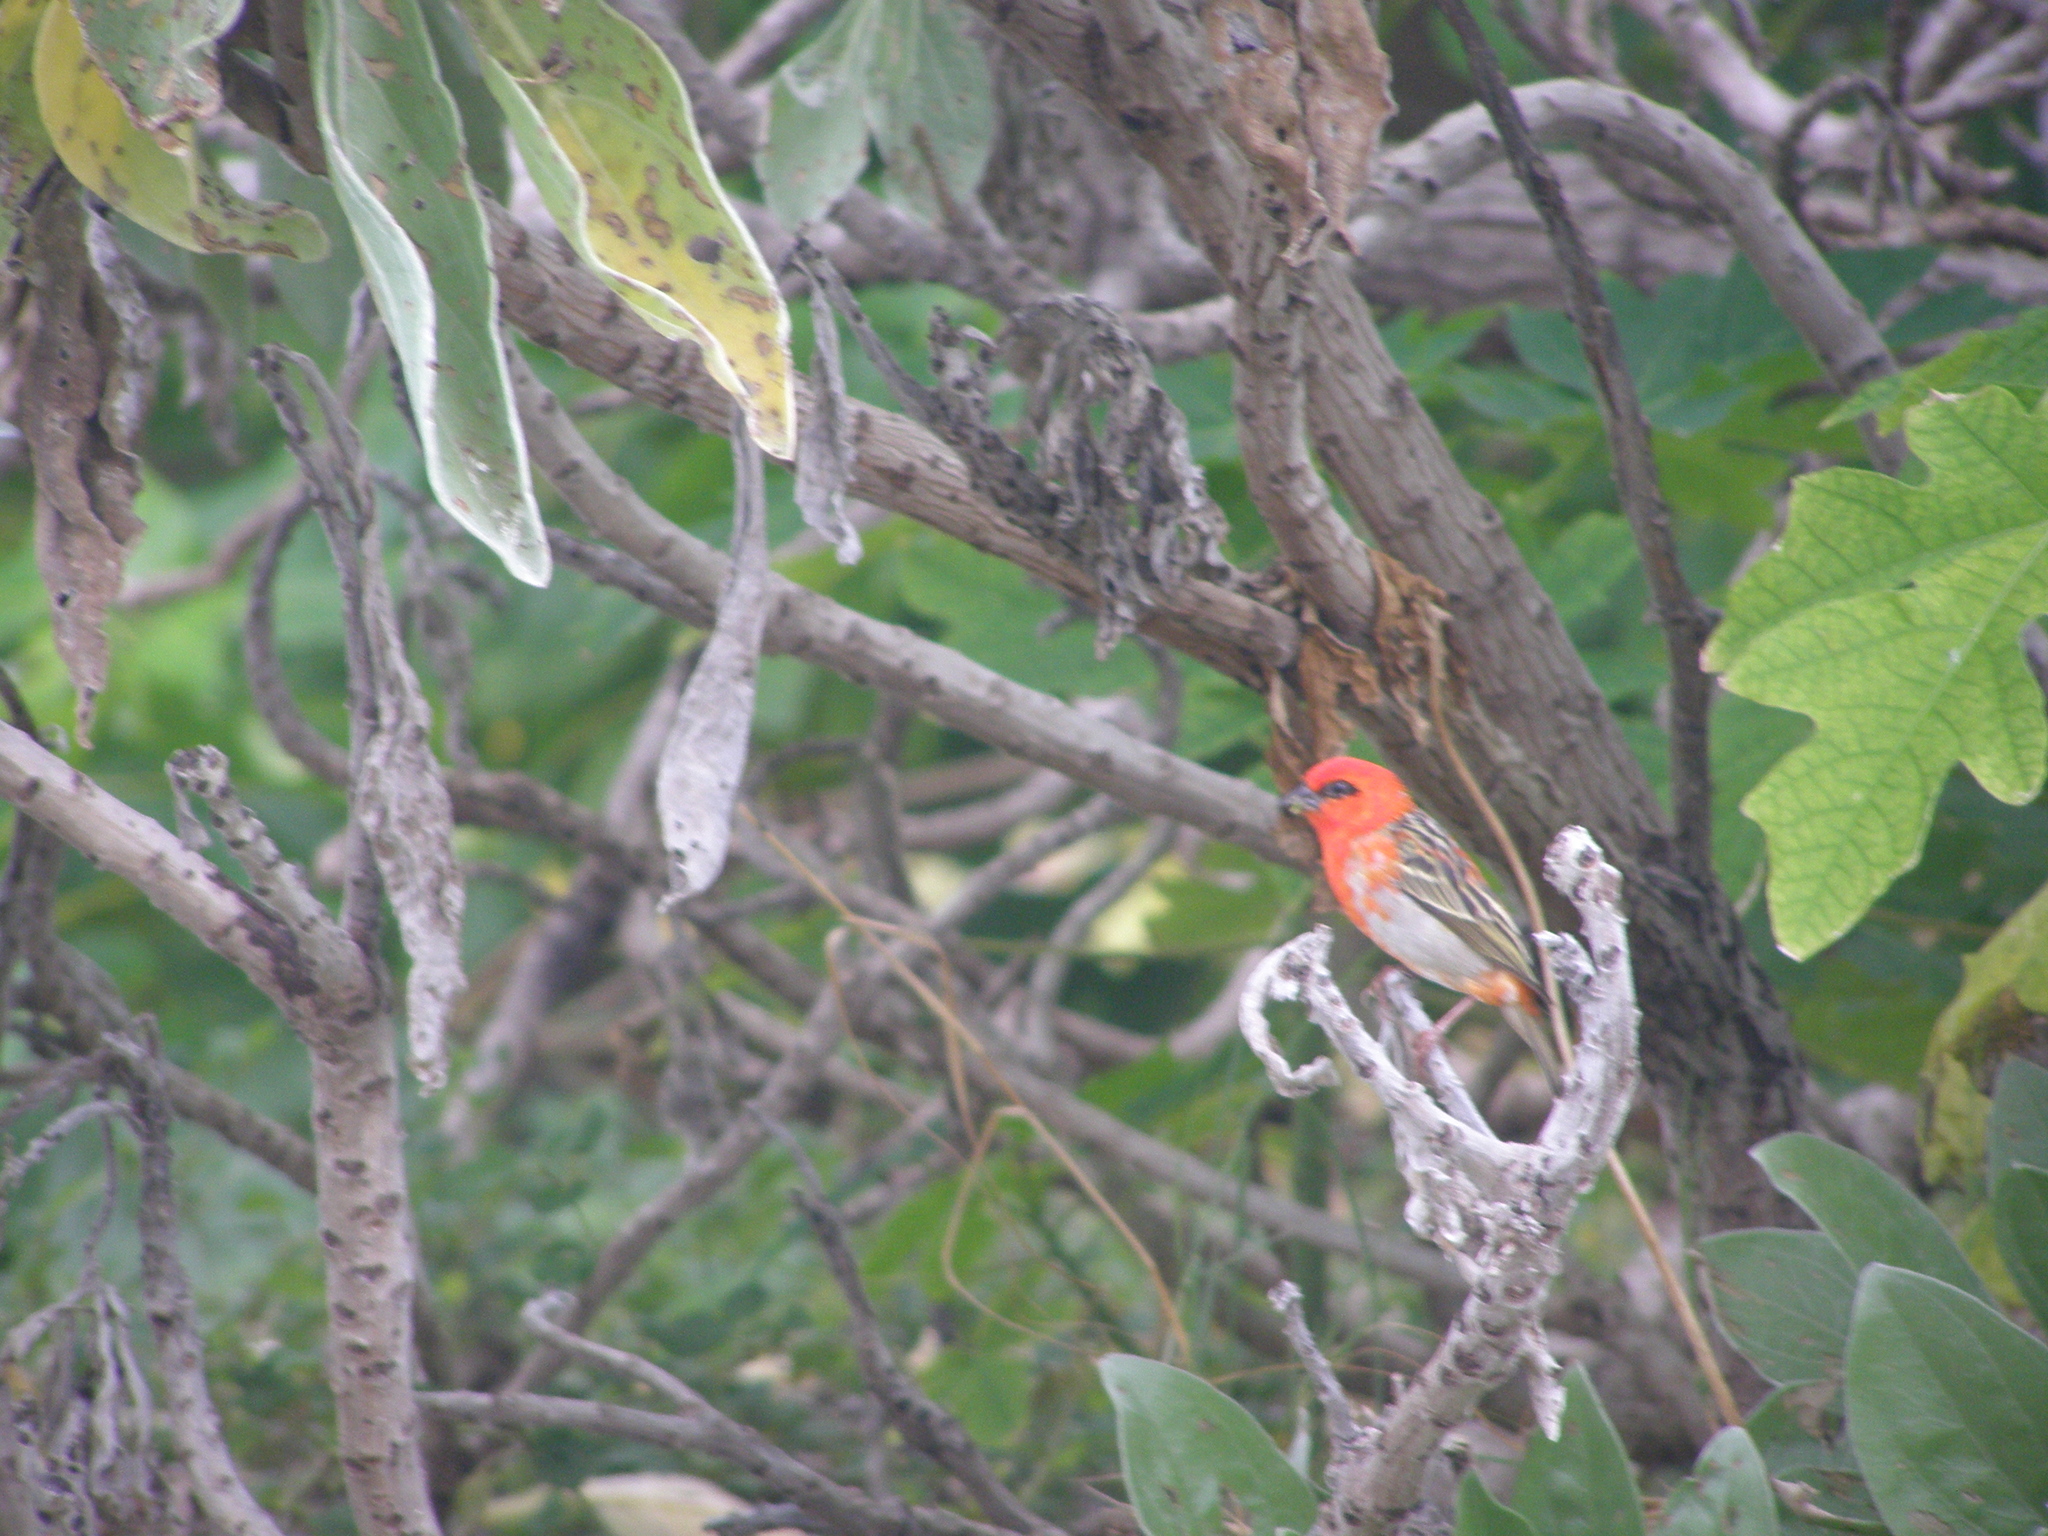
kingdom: Animalia
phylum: Chordata
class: Aves
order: Passeriformes
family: Ploceidae
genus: Foudia
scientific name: Foudia madagascariensis
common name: Red fody
